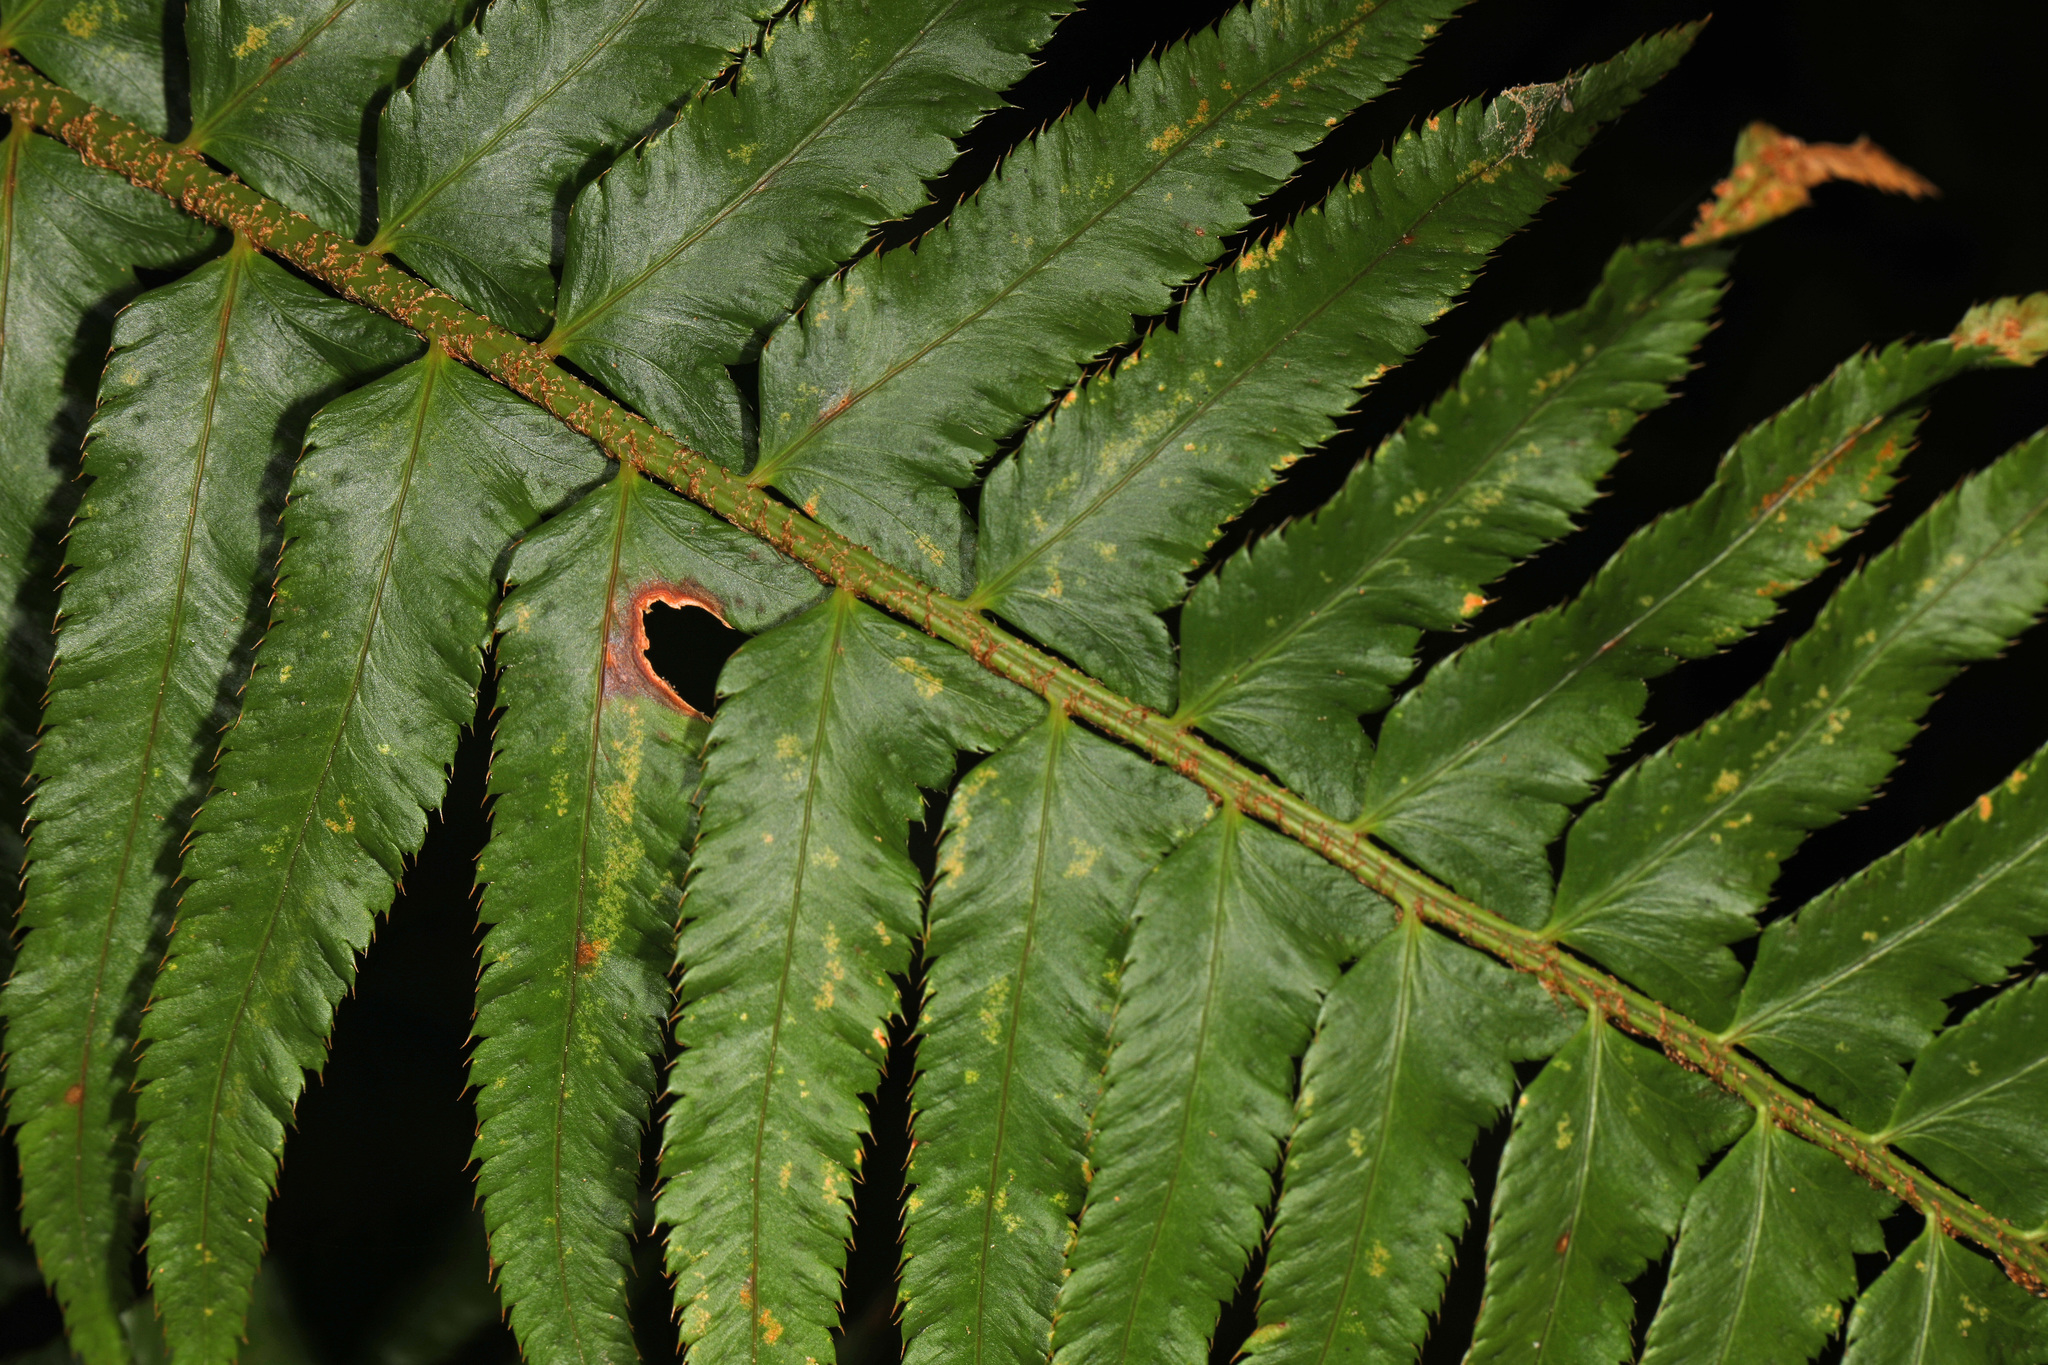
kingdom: Plantae
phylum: Tracheophyta
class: Polypodiopsida
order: Polypodiales
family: Dryopteridaceae
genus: Polystichum
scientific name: Polystichum munitum
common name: Western sword-fern
